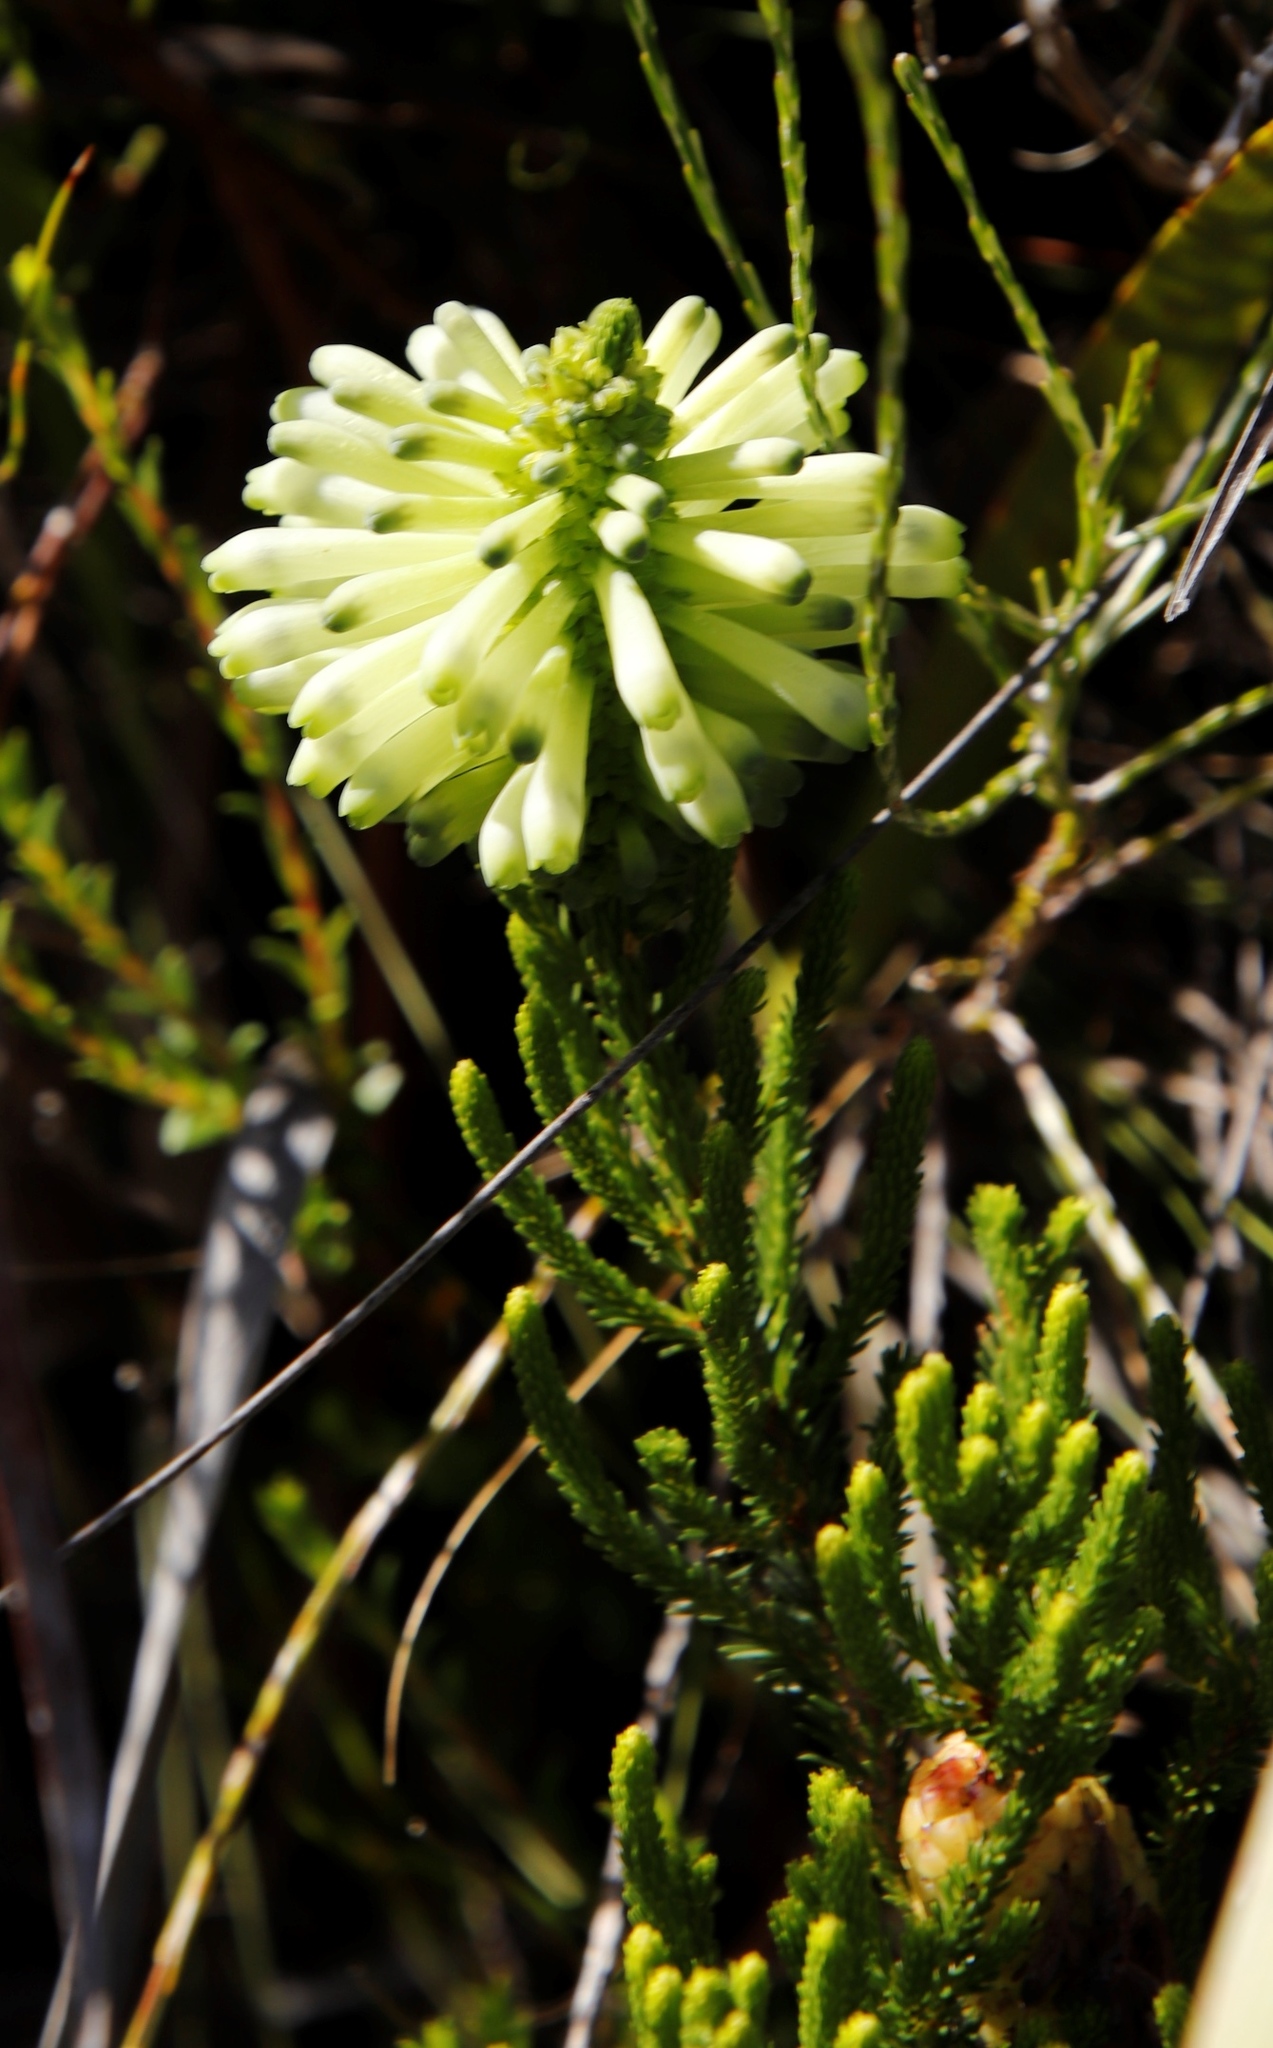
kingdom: Plantae
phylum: Tracheophyta
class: Magnoliopsida
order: Ericales
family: Ericaceae
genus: Erica
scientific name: Erica sessiliflora
